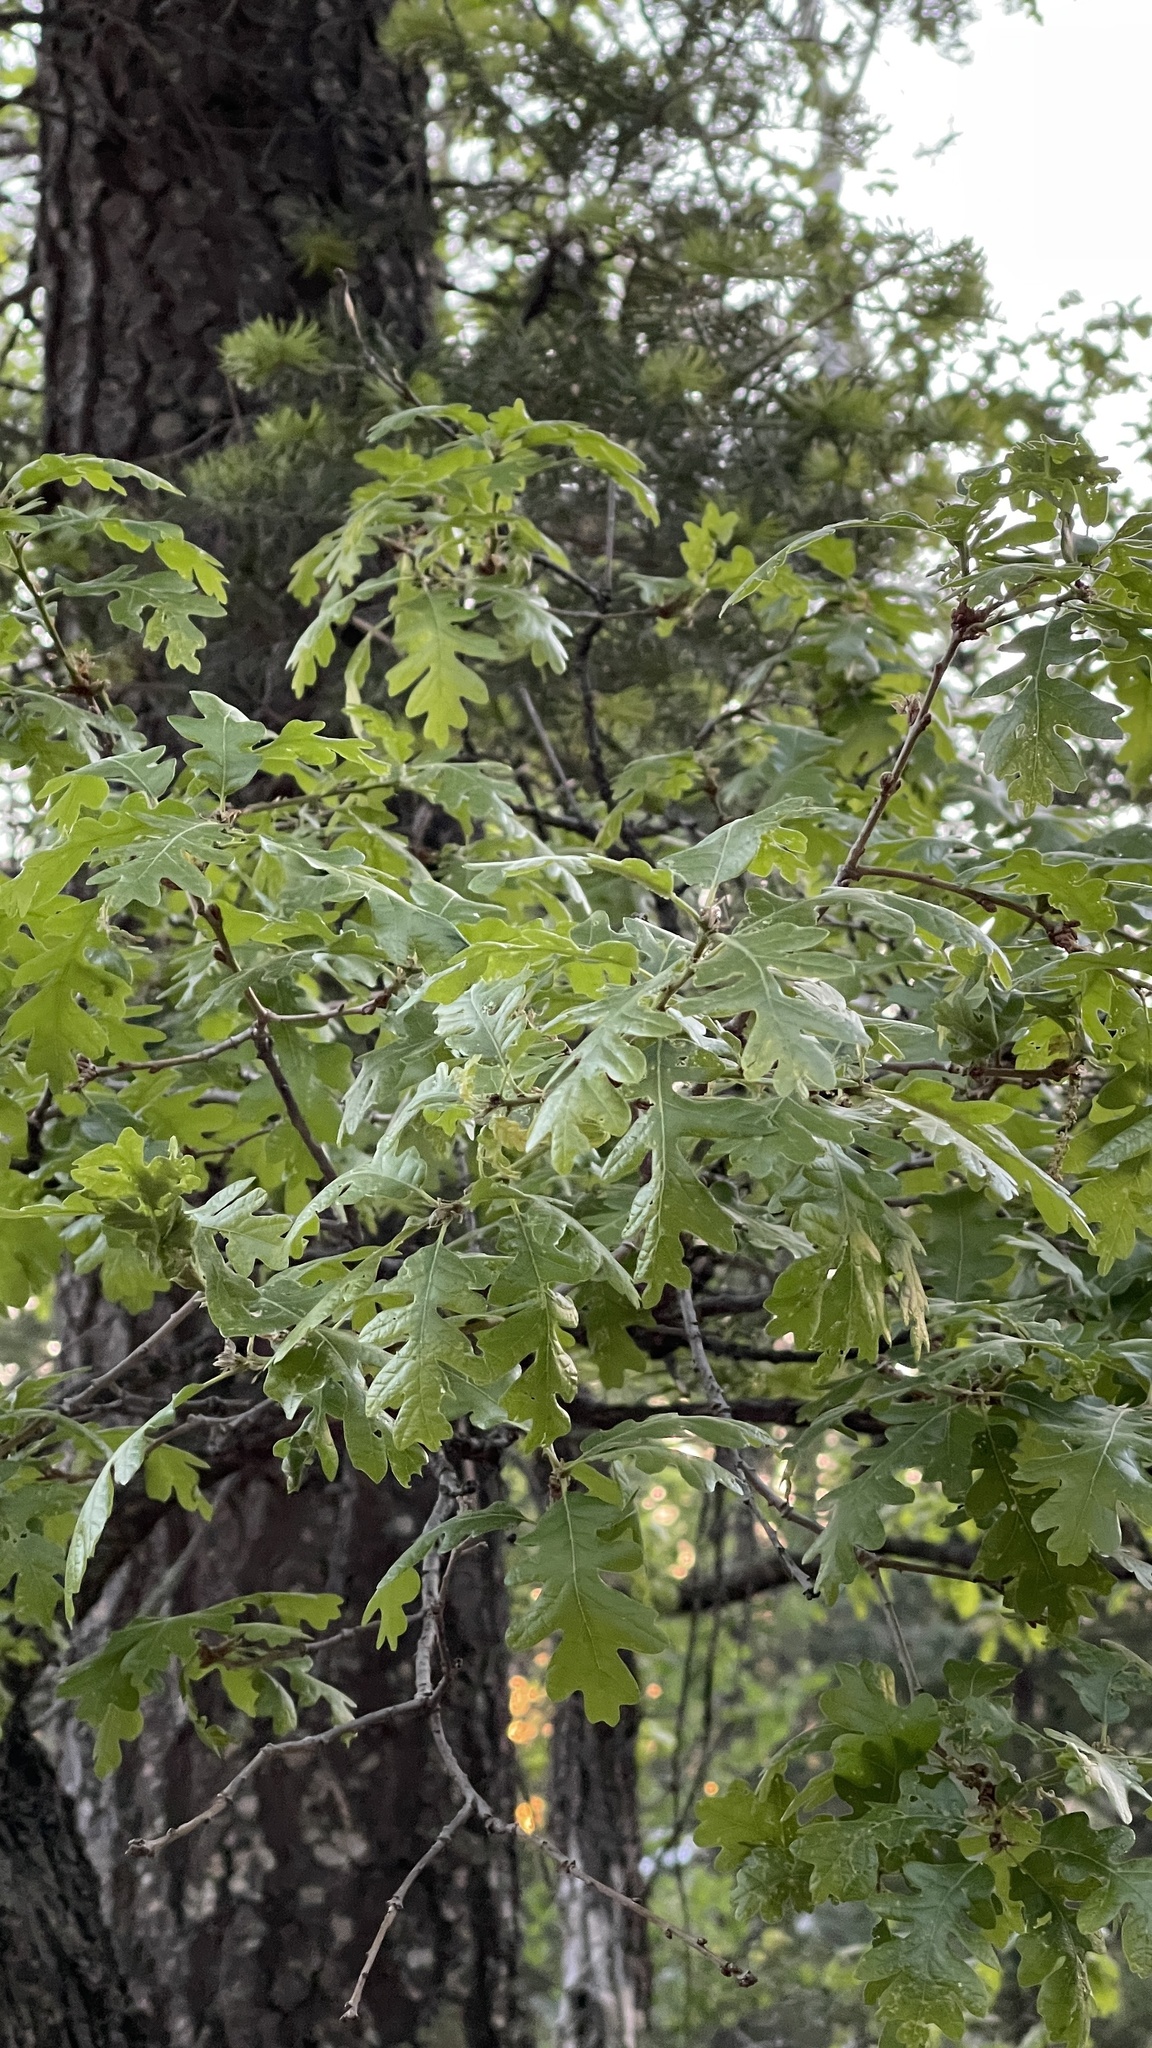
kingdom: Plantae
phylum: Tracheophyta
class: Magnoliopsida
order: Fagales
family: Fagaceae
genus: Quercus
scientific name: Quercus gambelii
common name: Gambel oak
